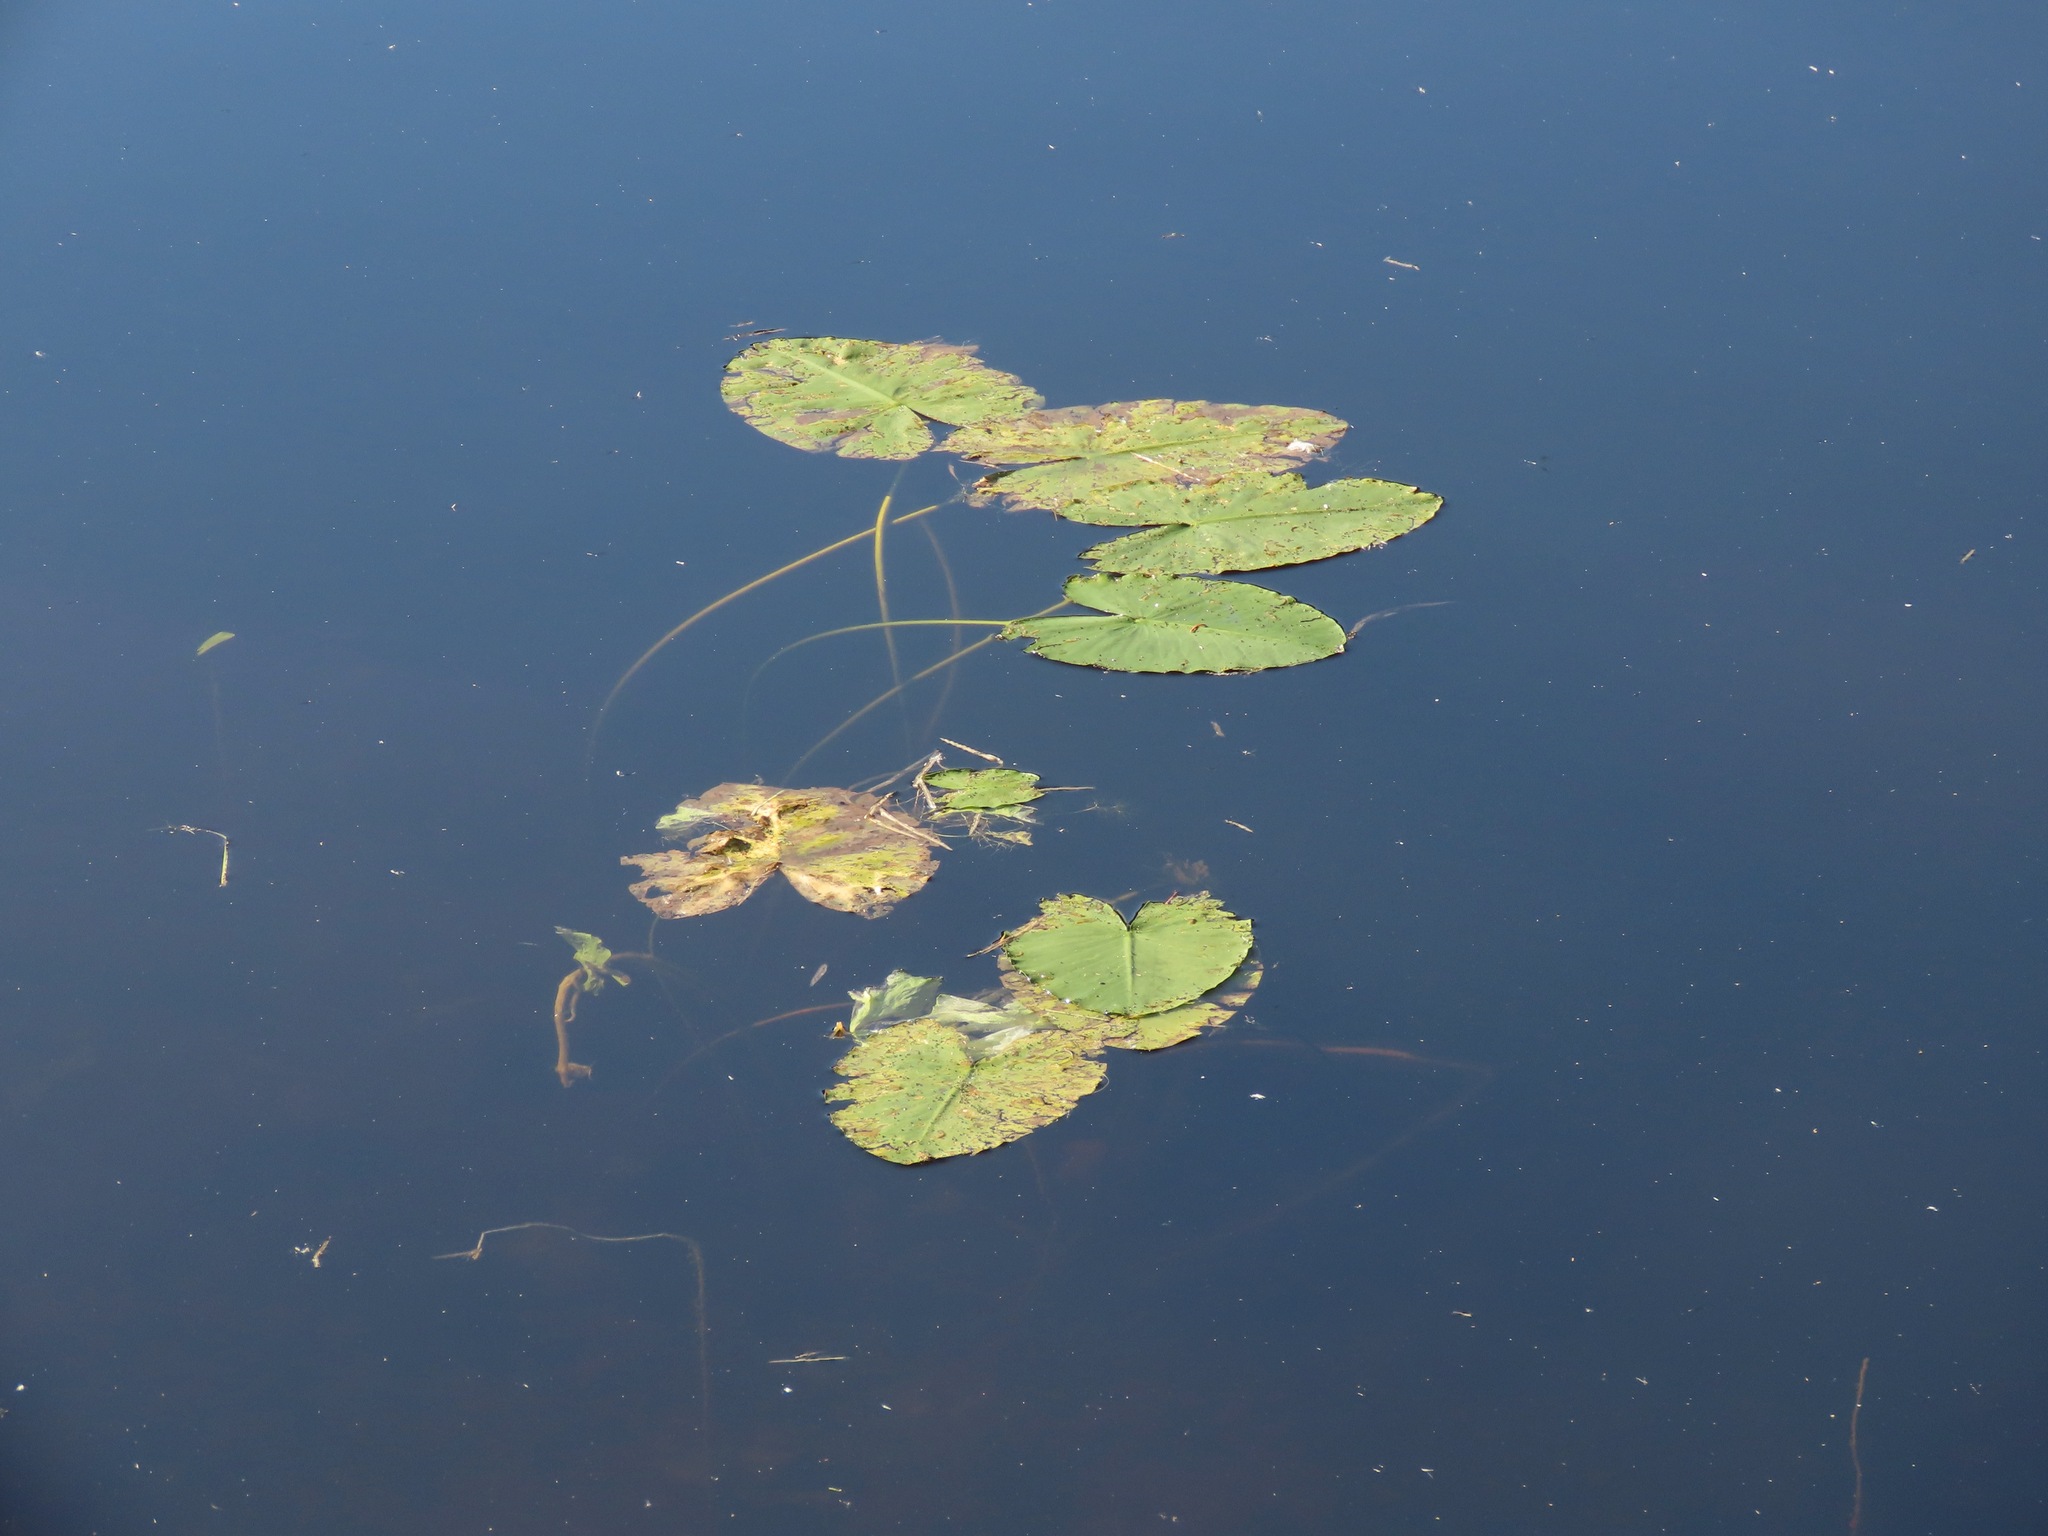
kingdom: Plantae
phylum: Tracheophyta
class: Magnoliopsida
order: Nymphaeales
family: Nymphaeaceae
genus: Nuphar
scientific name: Nuphar polysepala
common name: Rocky mountain cow-lily
